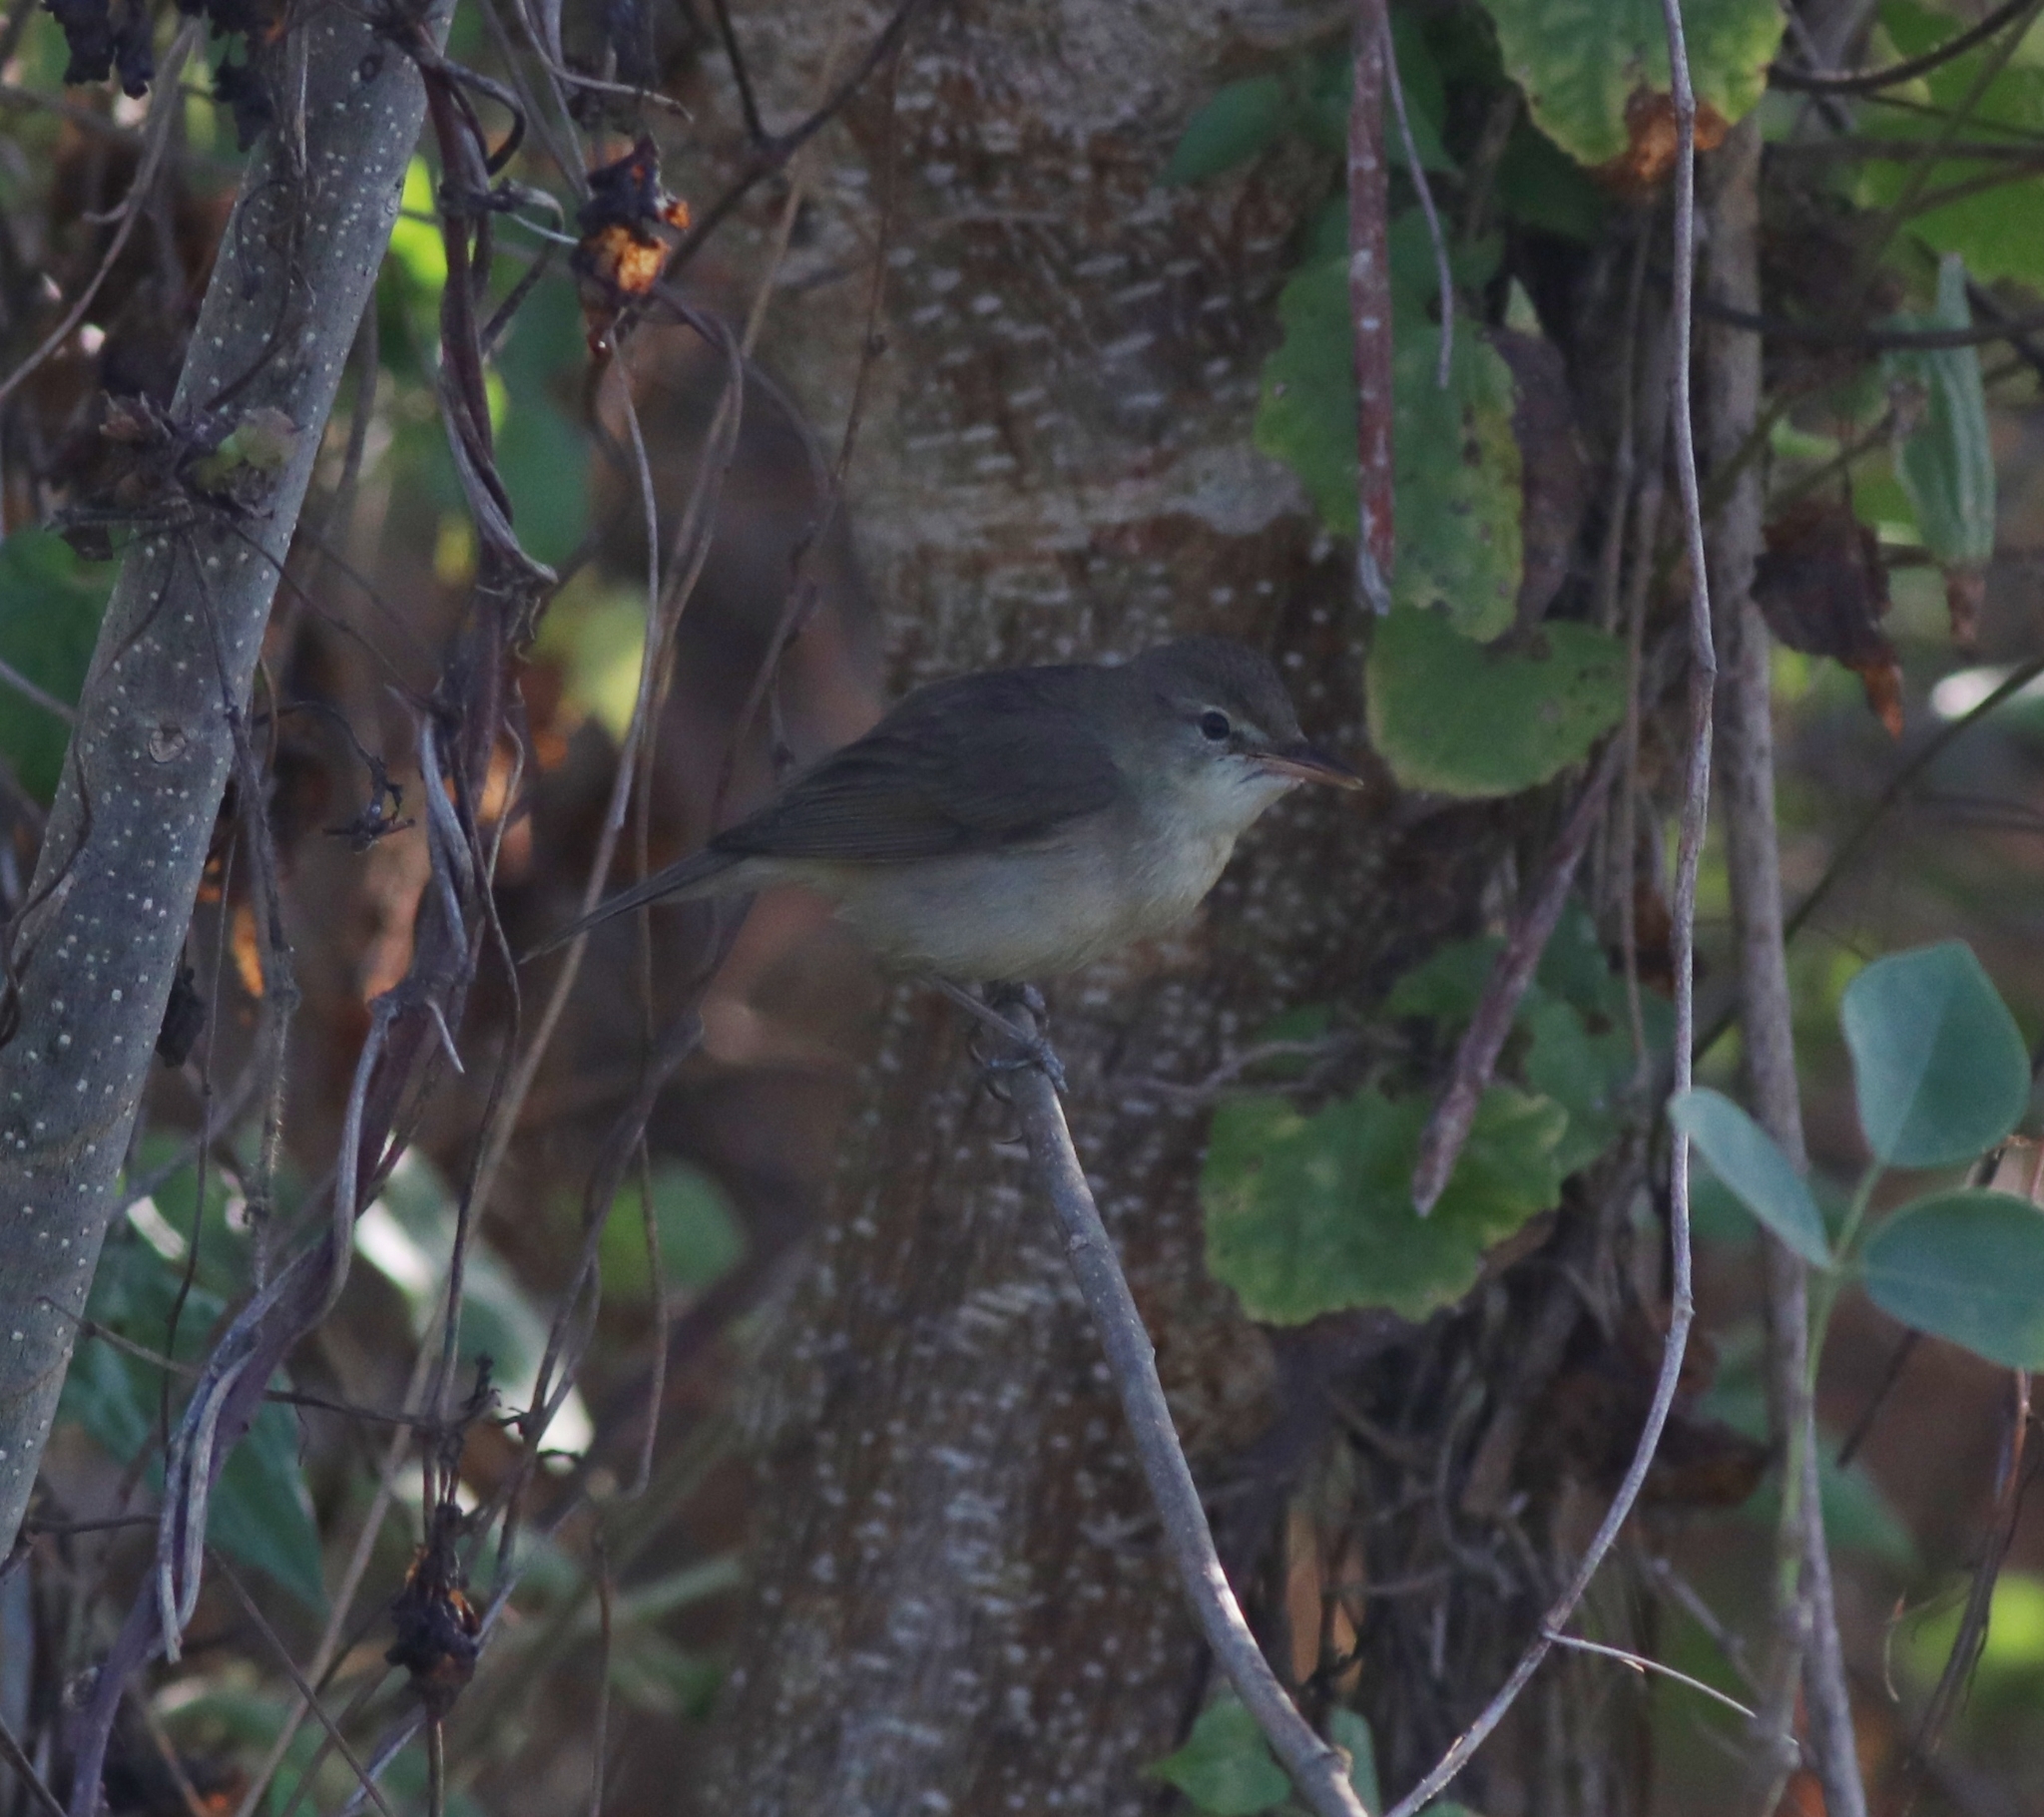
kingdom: Animalia
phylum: Chordata
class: Aves
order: Passeriformes
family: Acrocephalidae
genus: Acrocephalus
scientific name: Acrocephalus dumetorum
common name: Blyth's reed warbler
